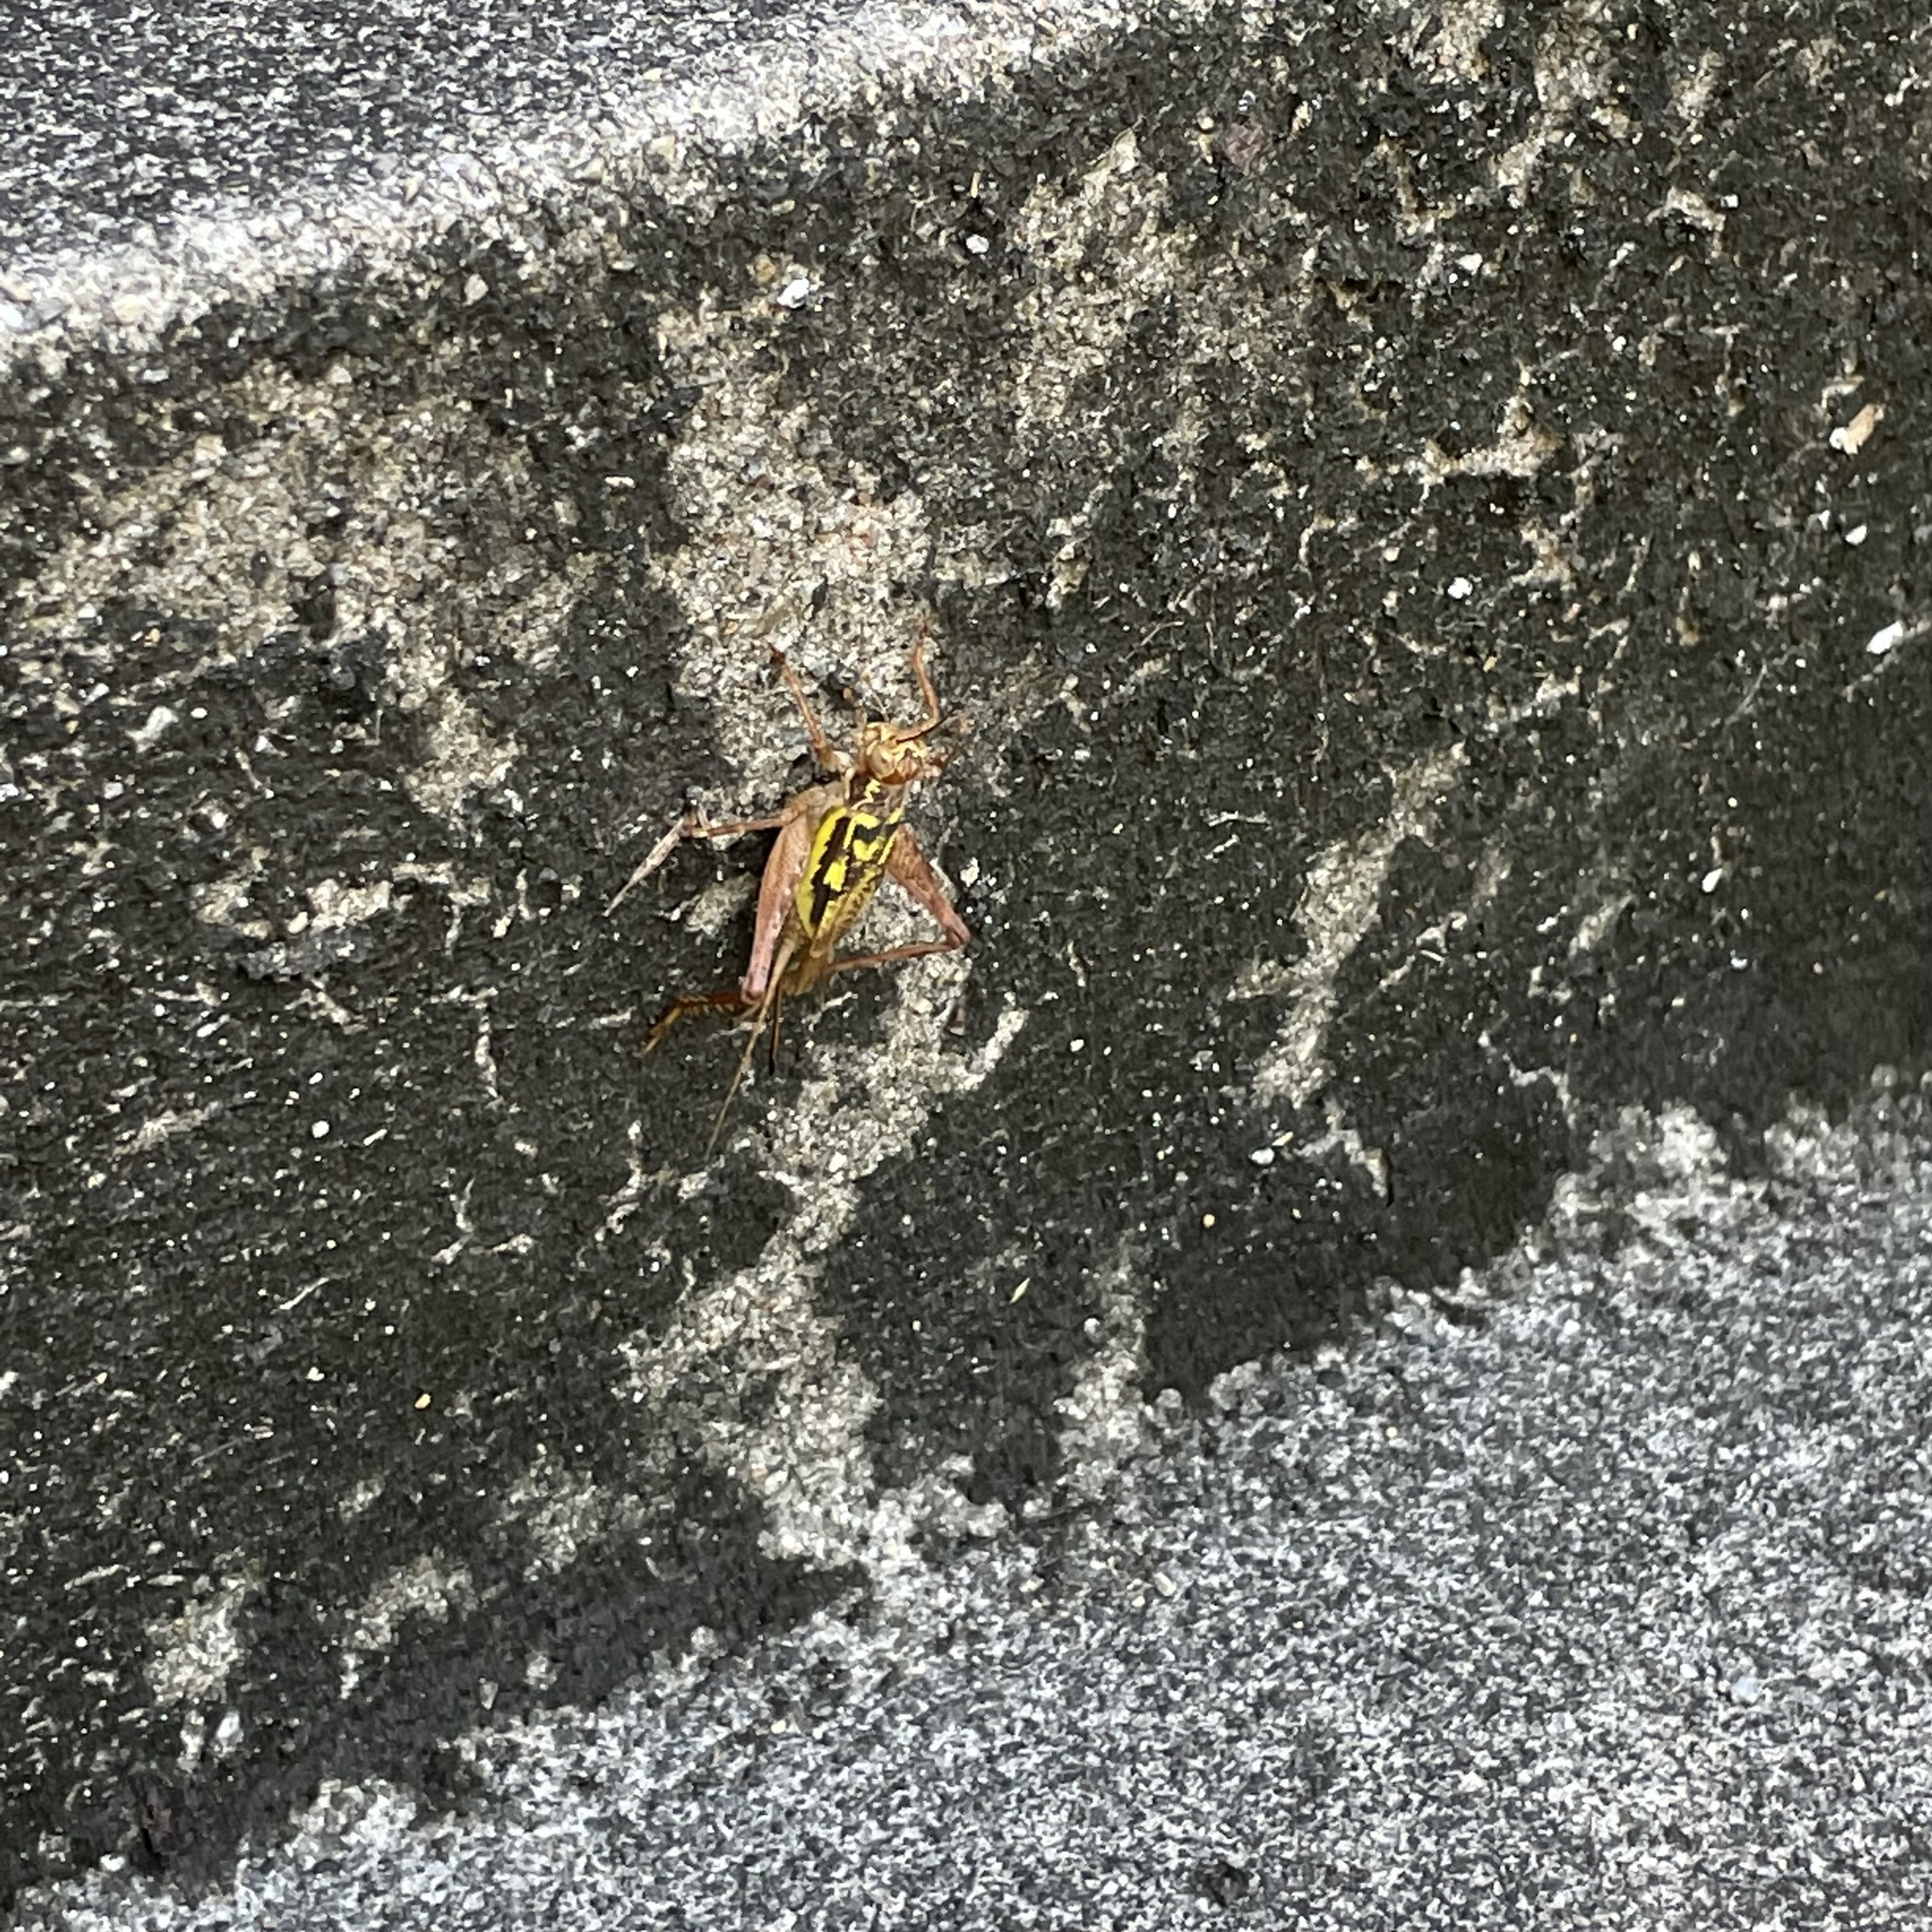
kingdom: Animalia
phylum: Arthropoda
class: Insecta
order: Orthoptera
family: Gryllidae
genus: Cardiodactylus
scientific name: Cardiodactylus guttulus
